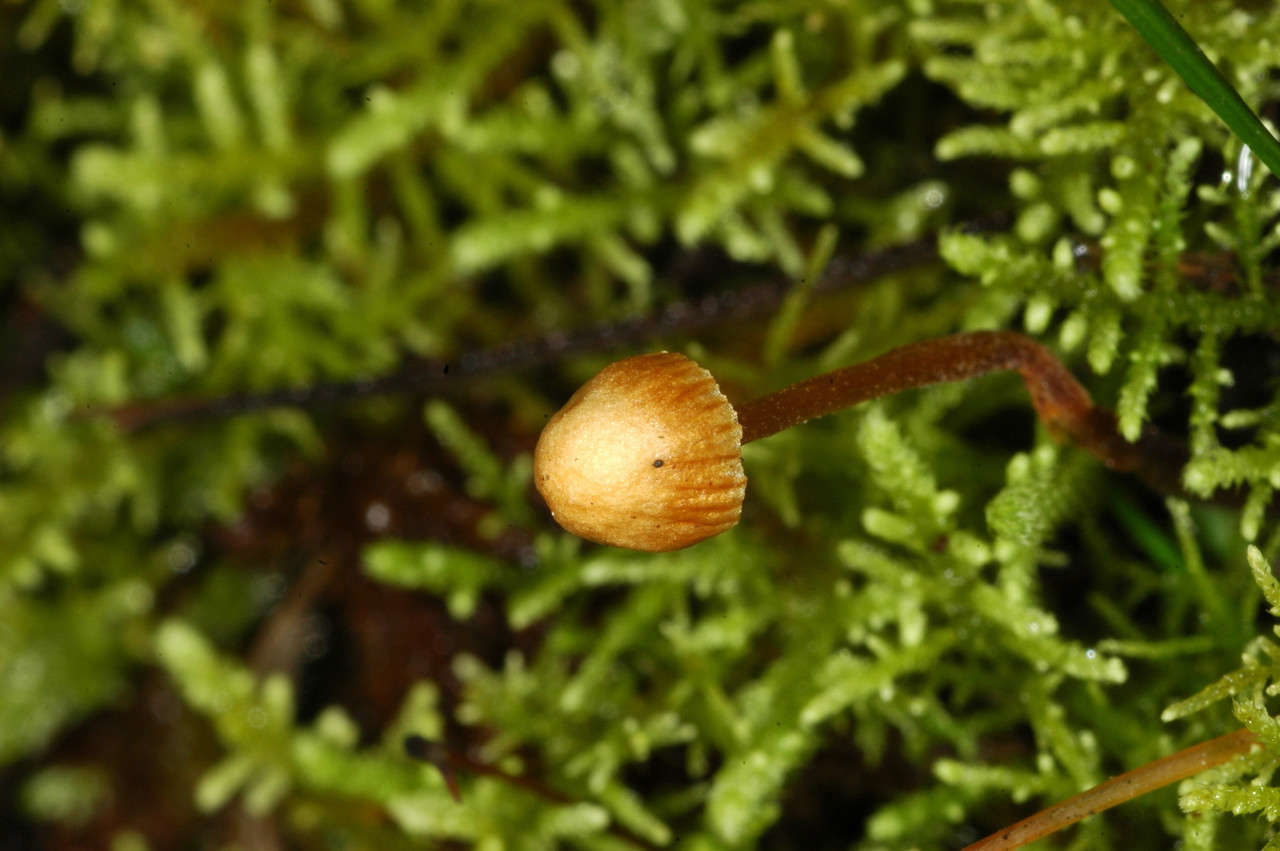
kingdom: Fungi
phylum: Basidiomycota
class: Agaricomycetes
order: Agaricales
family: Hymenogastraceae
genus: Galerina
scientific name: Galerina hypnorum
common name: Moss bell
